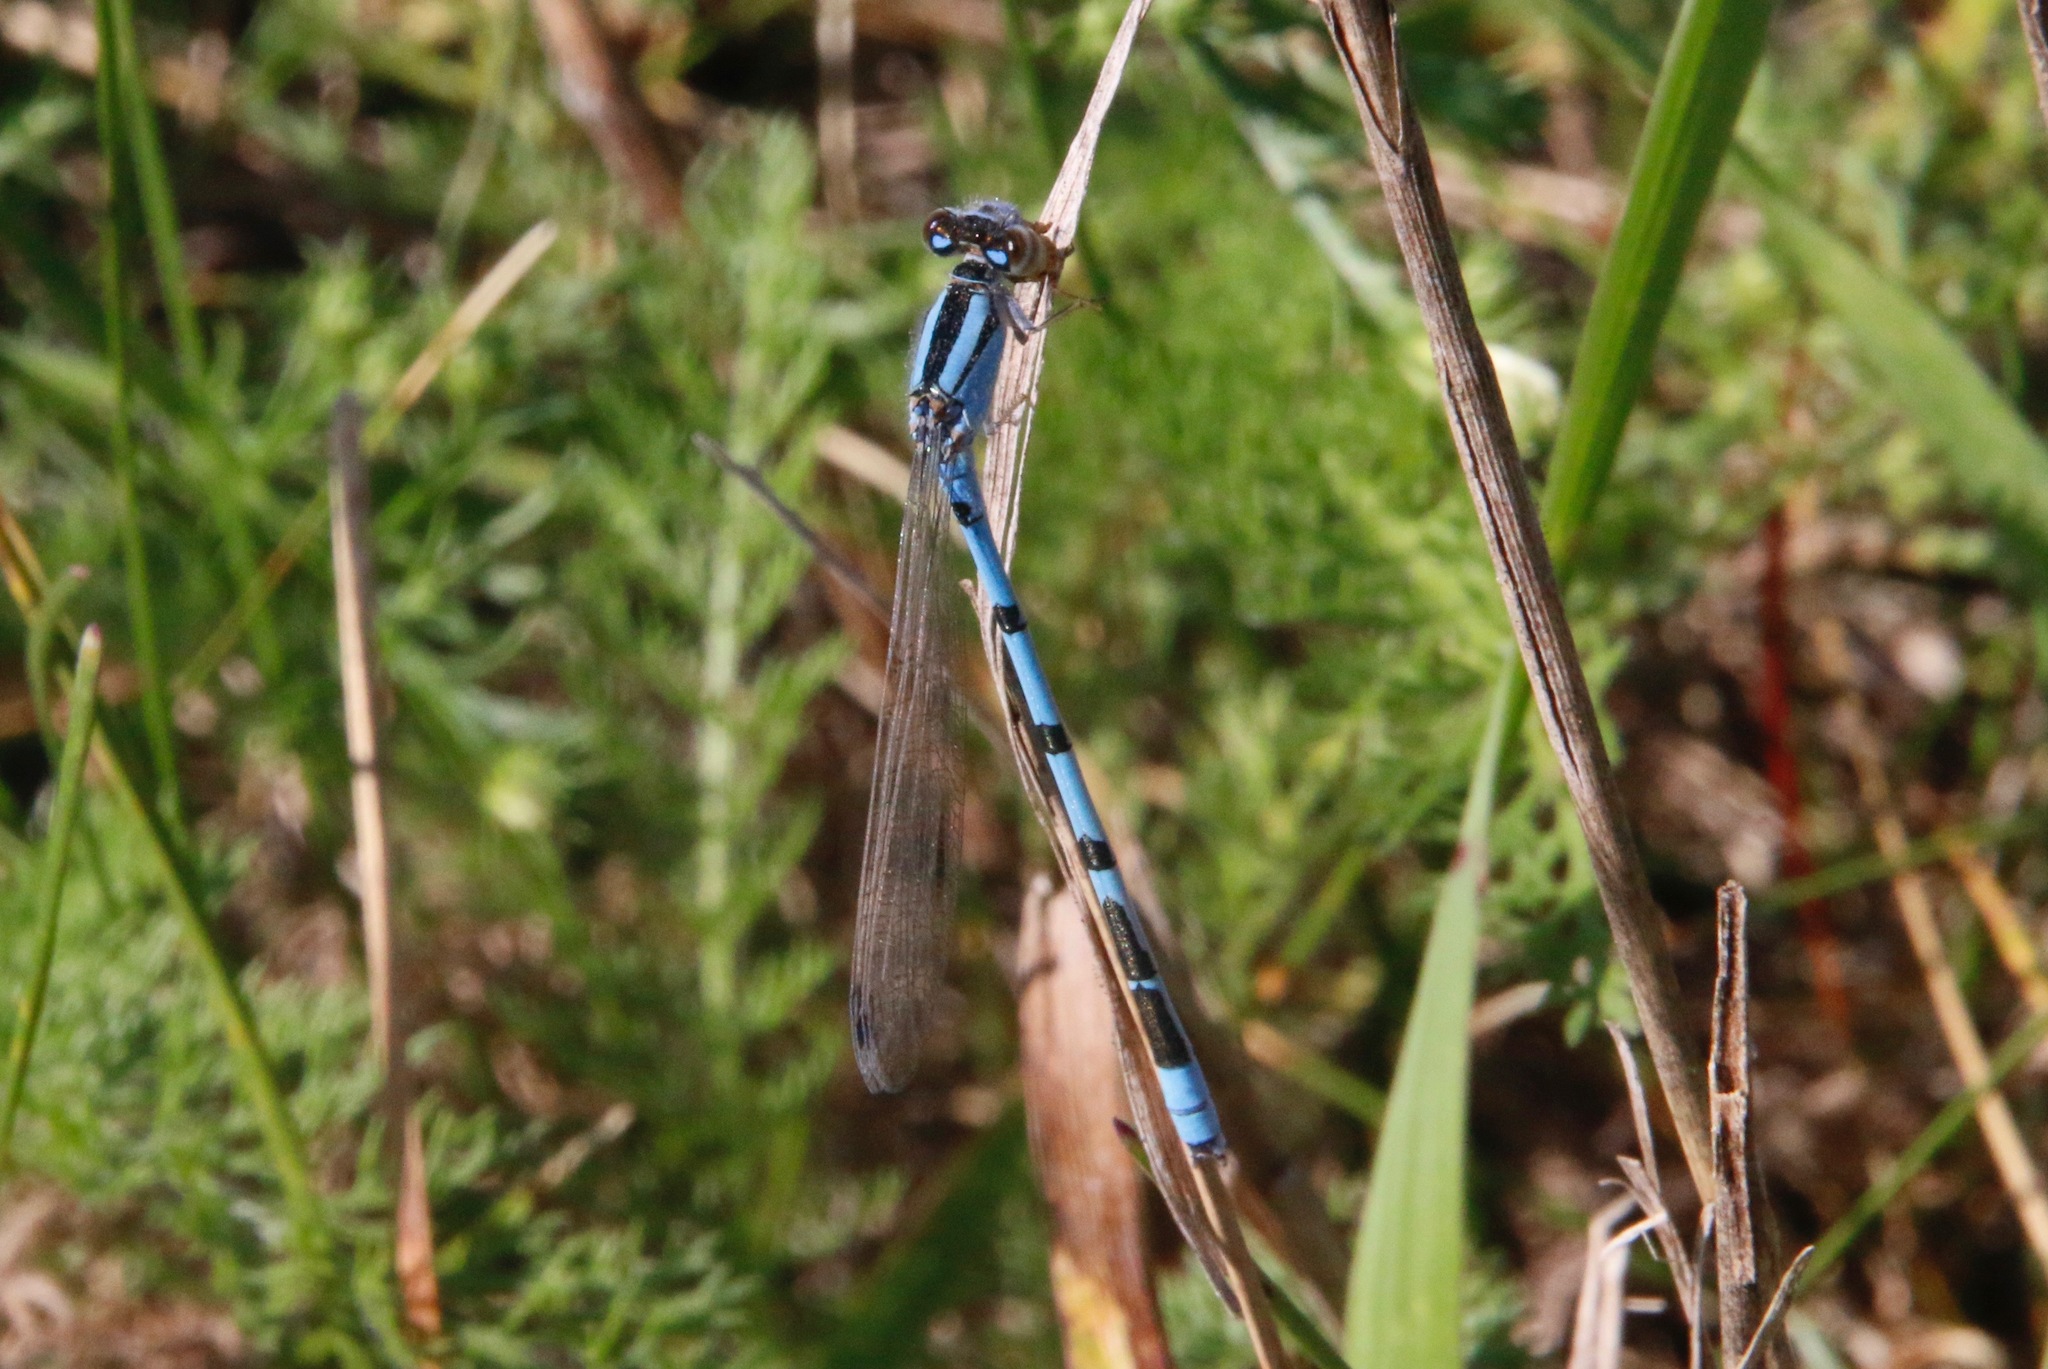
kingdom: Animalia
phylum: Arthropoda
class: Insecta
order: Odonata
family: Coenagrionidae
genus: Enallagma
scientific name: Enallagma civile
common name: Damselfly
